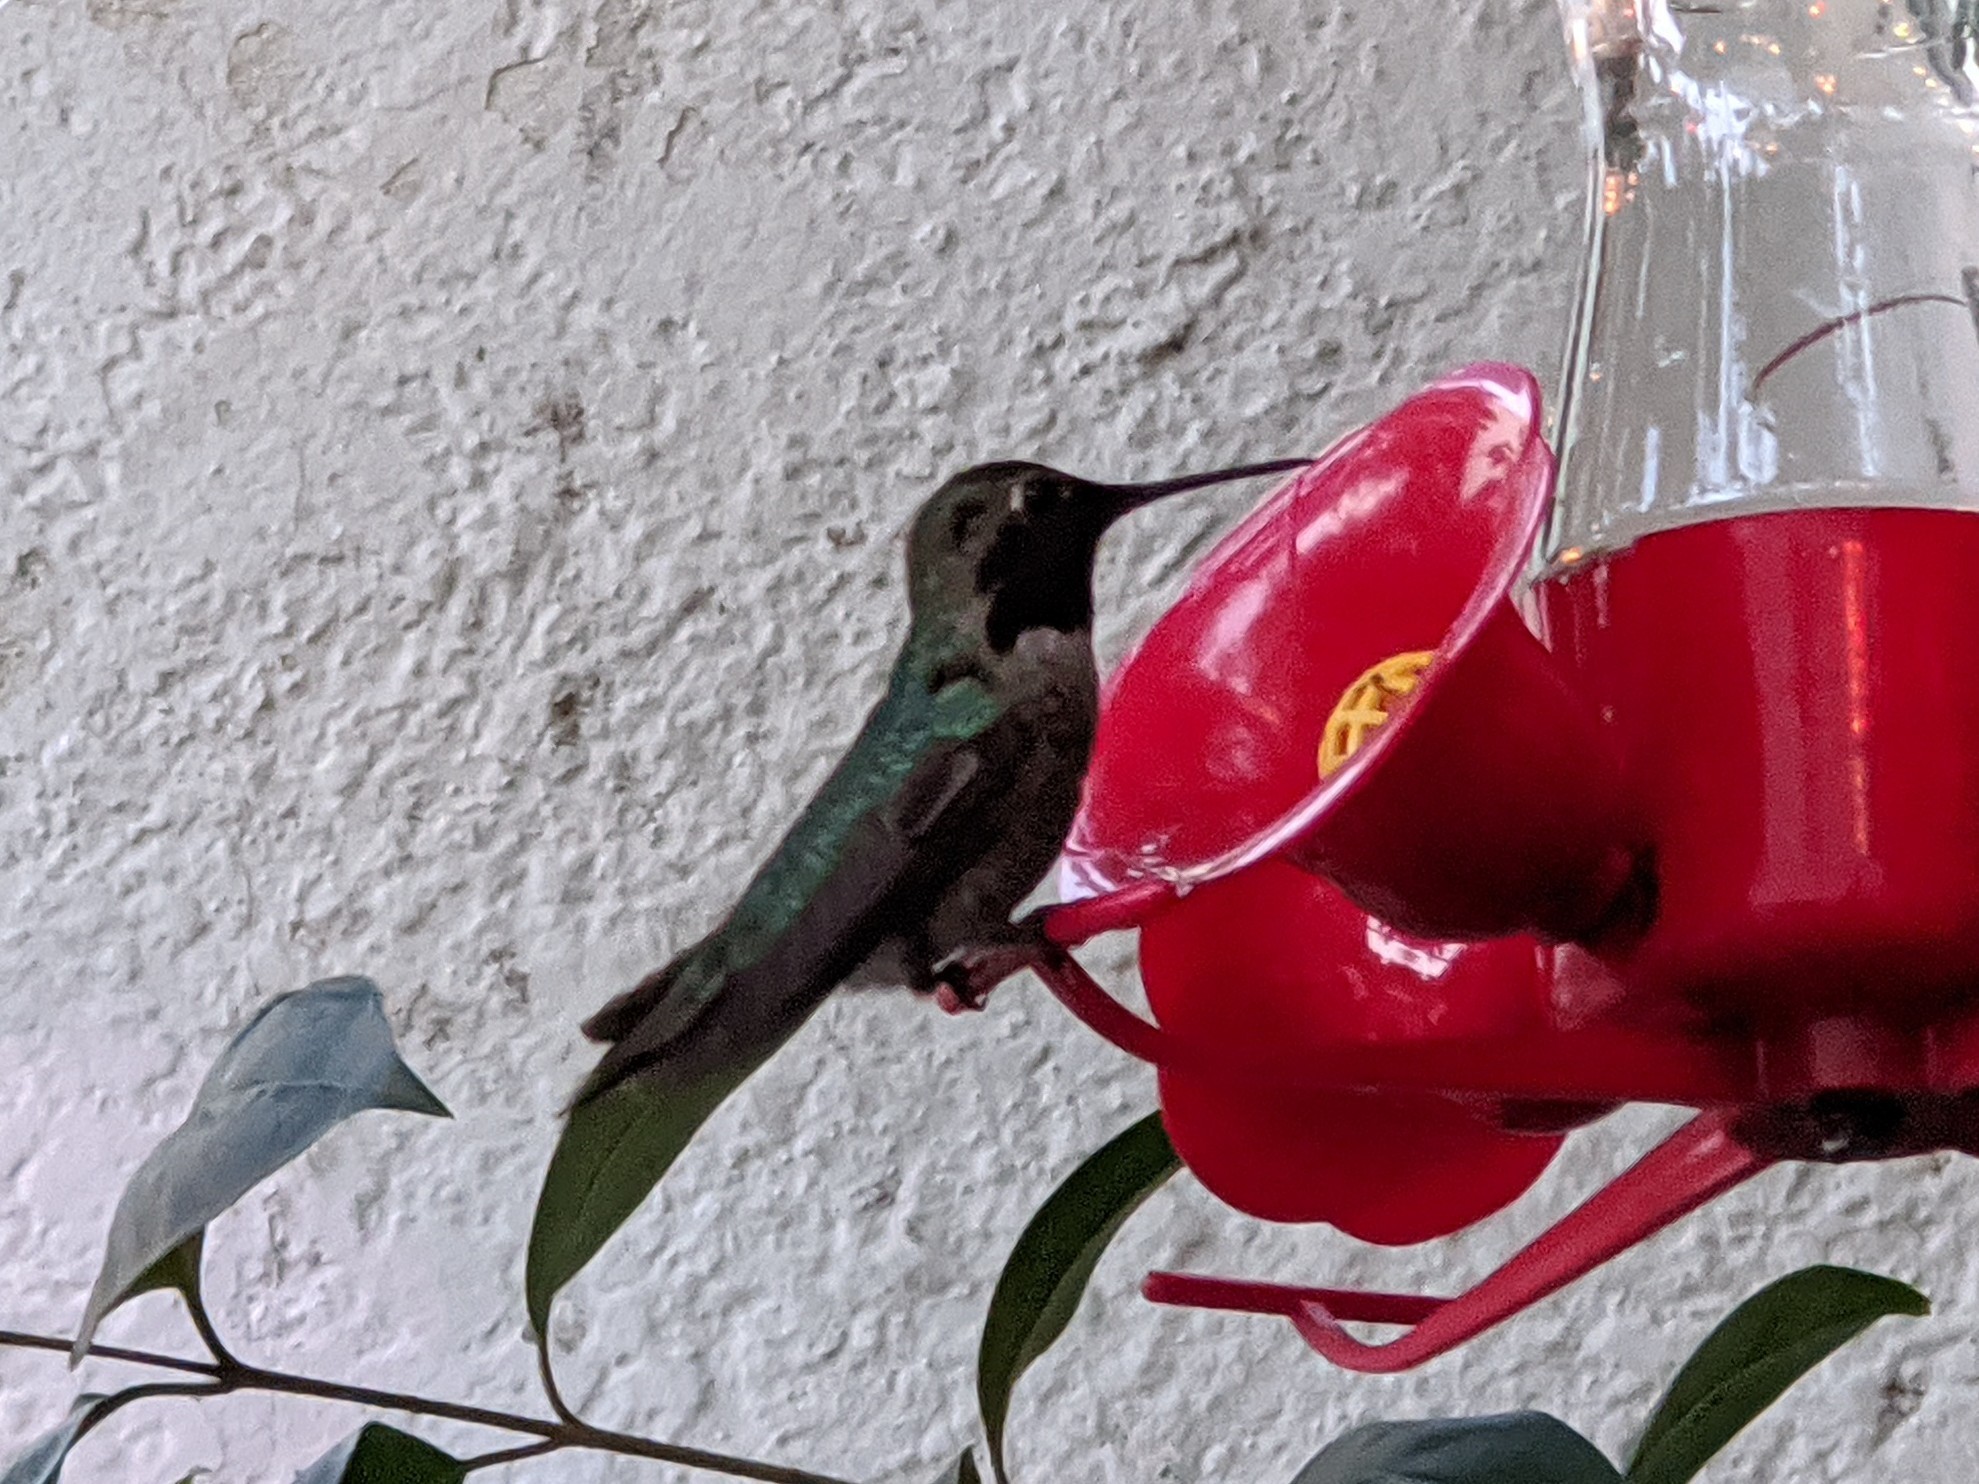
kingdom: Animalia
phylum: Chordata
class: Aves
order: Apodiformes
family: Trochilidae
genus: Calypte
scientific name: Calypte anna
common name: Anna's hummingbird
